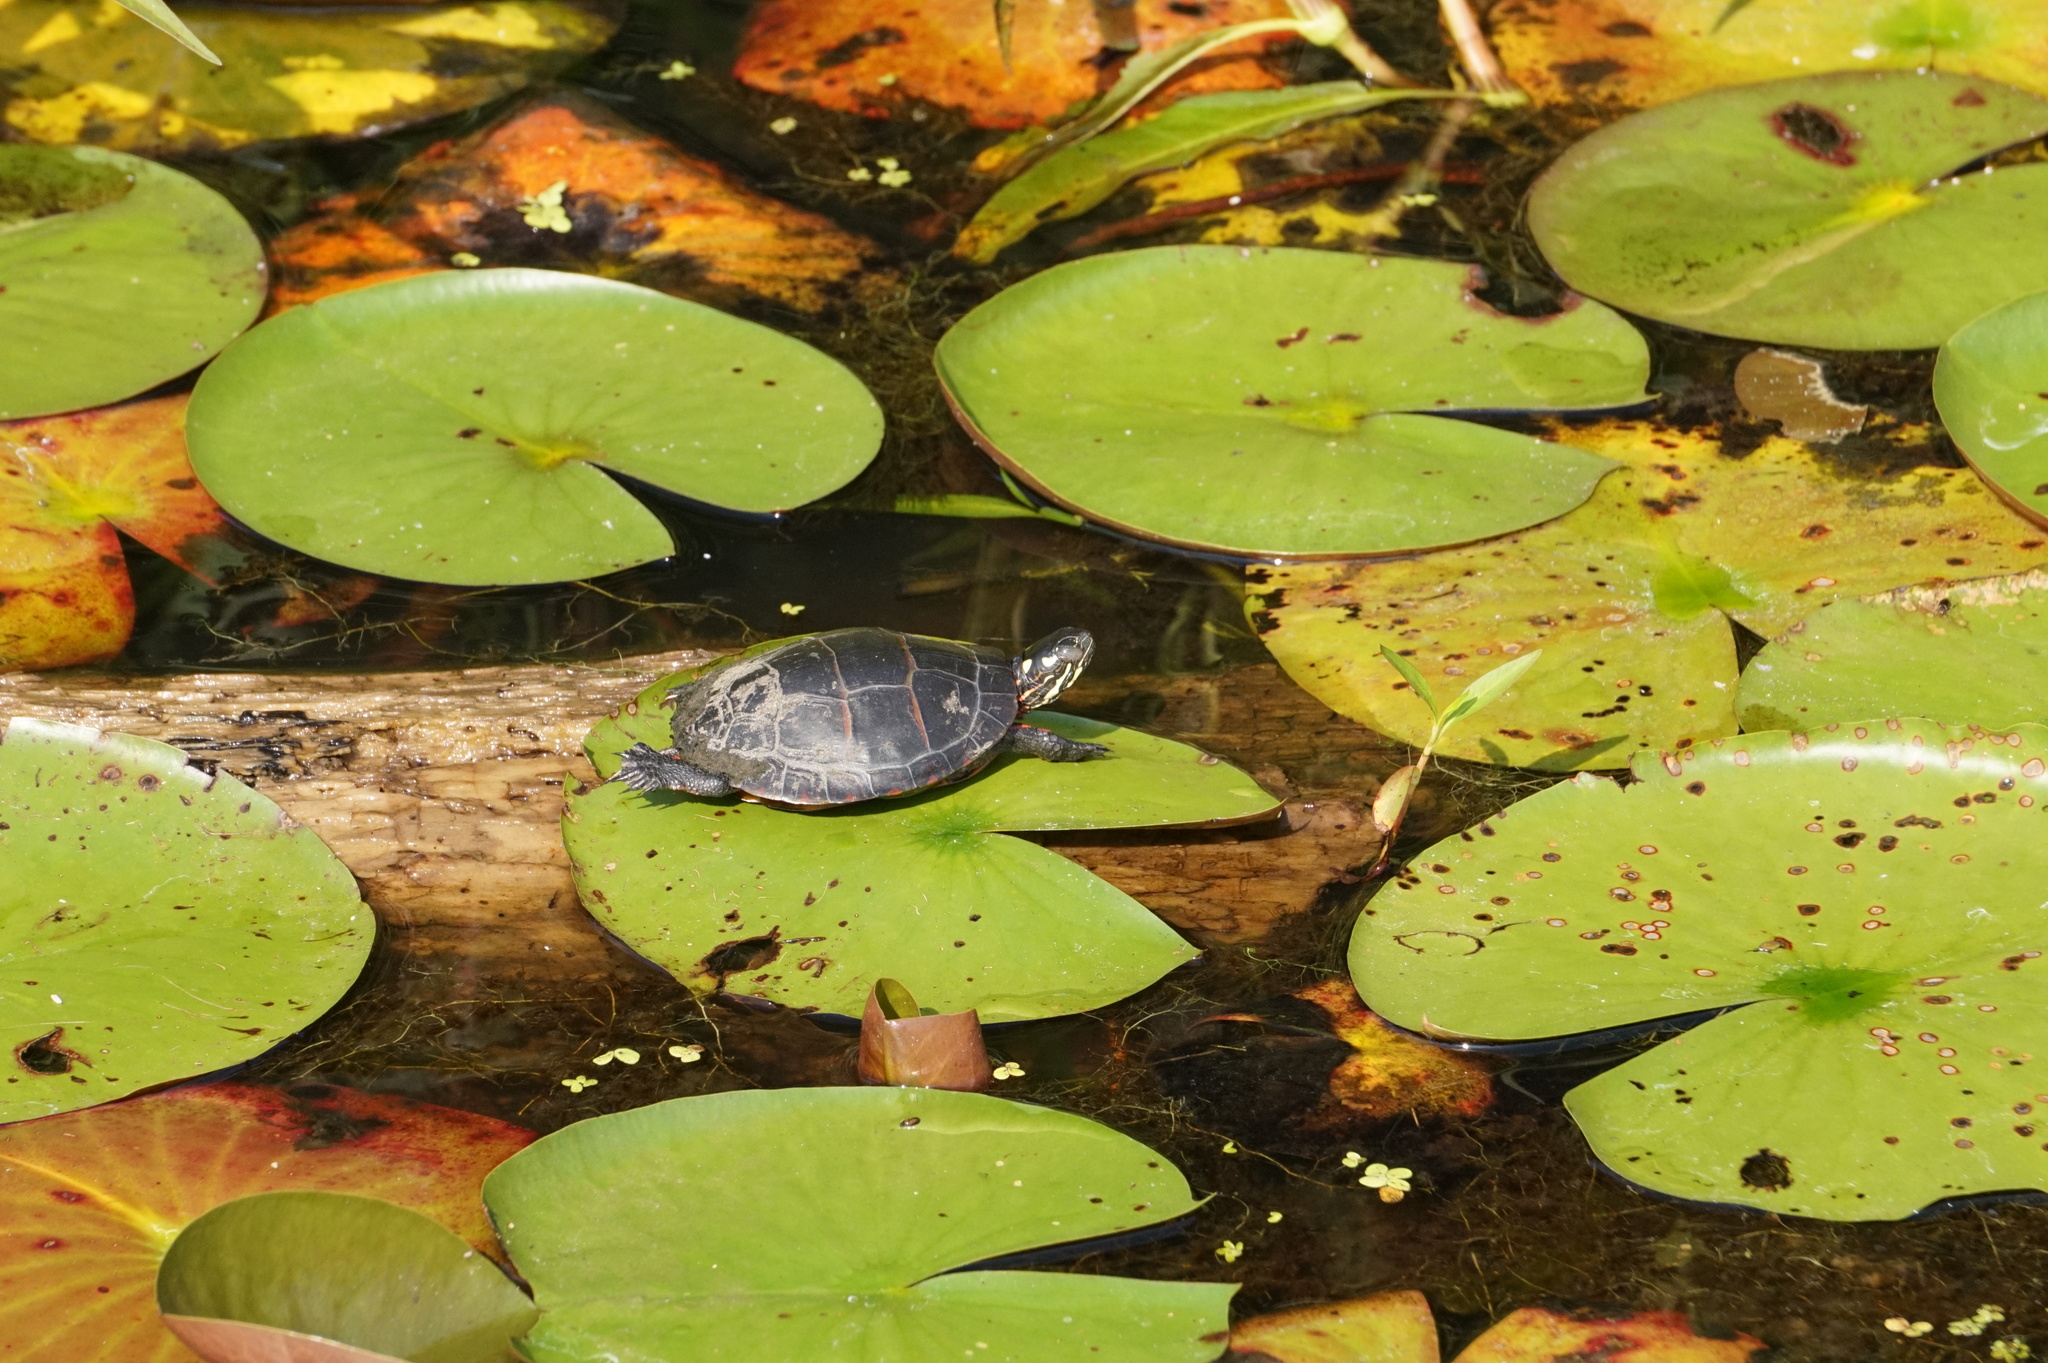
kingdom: Animalia
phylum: Chordata
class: Testudines
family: Emydidae
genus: Chrysemys
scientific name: Chrysemys picta
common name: Painted turtle
